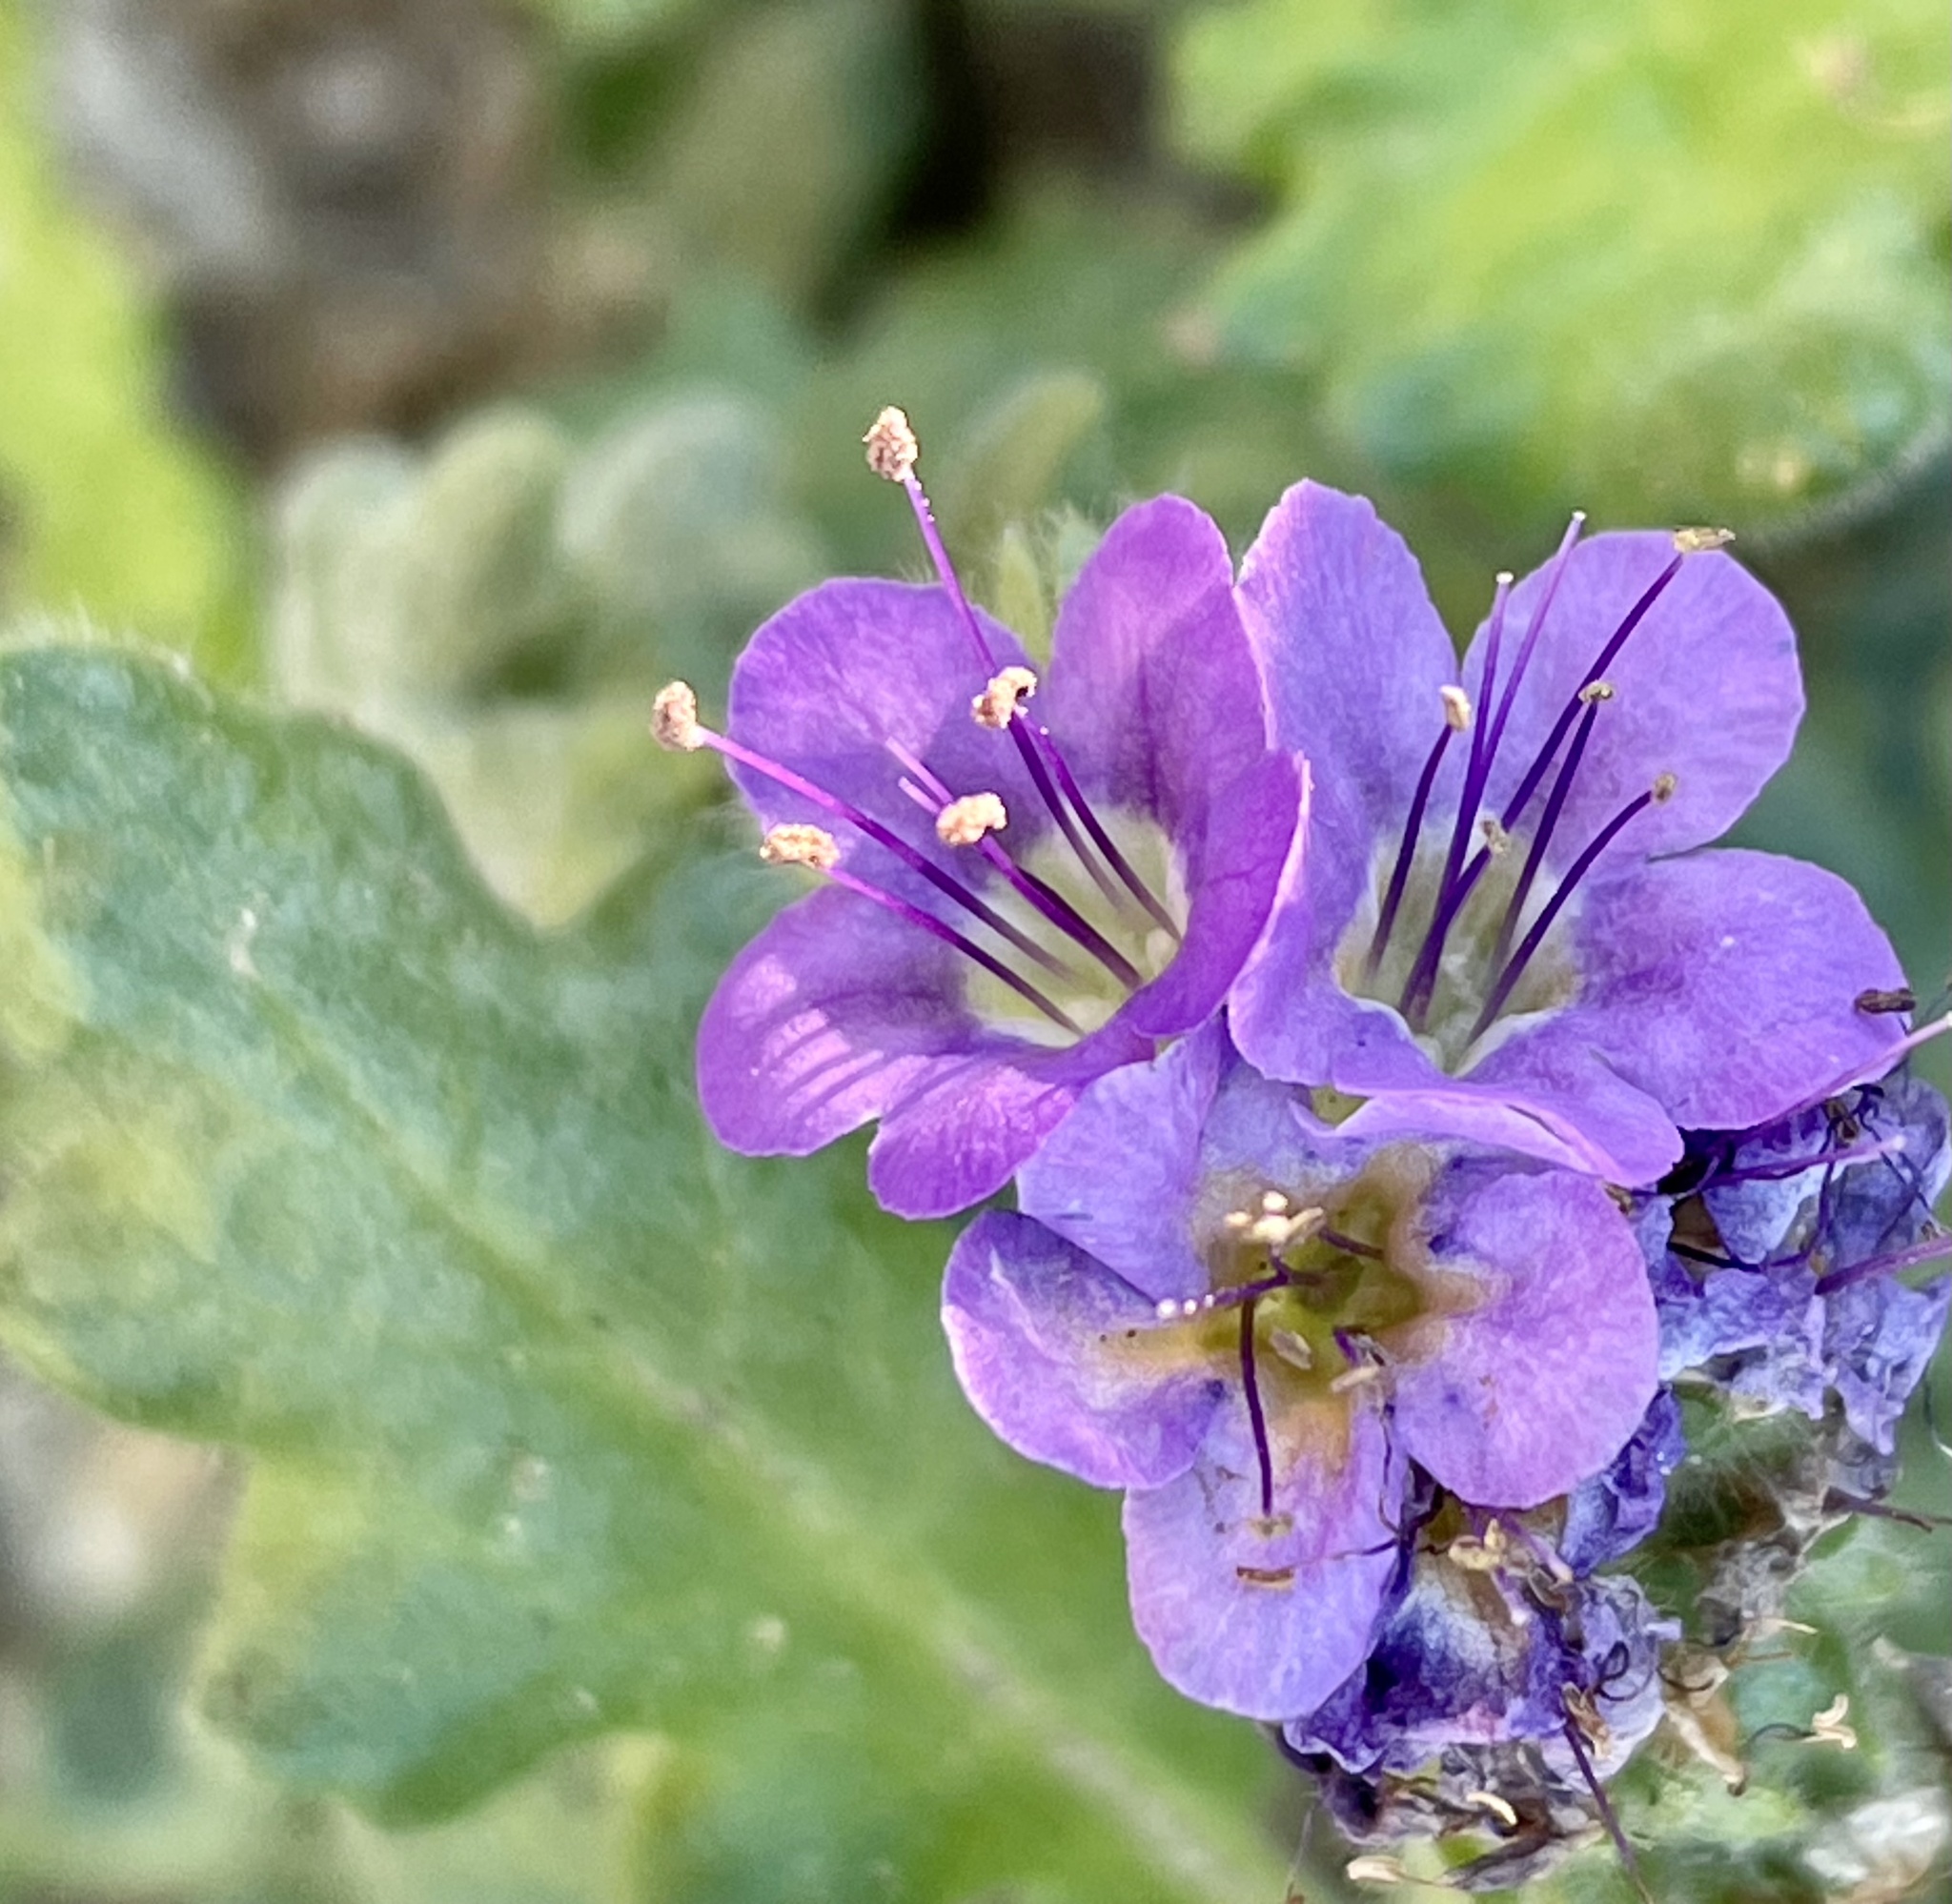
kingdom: Plantae
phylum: Tracheophyta
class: Magnoliopsida
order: Boraginales
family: Hydrophyllaceae
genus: Phacelia
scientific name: Phacelia crenulata
